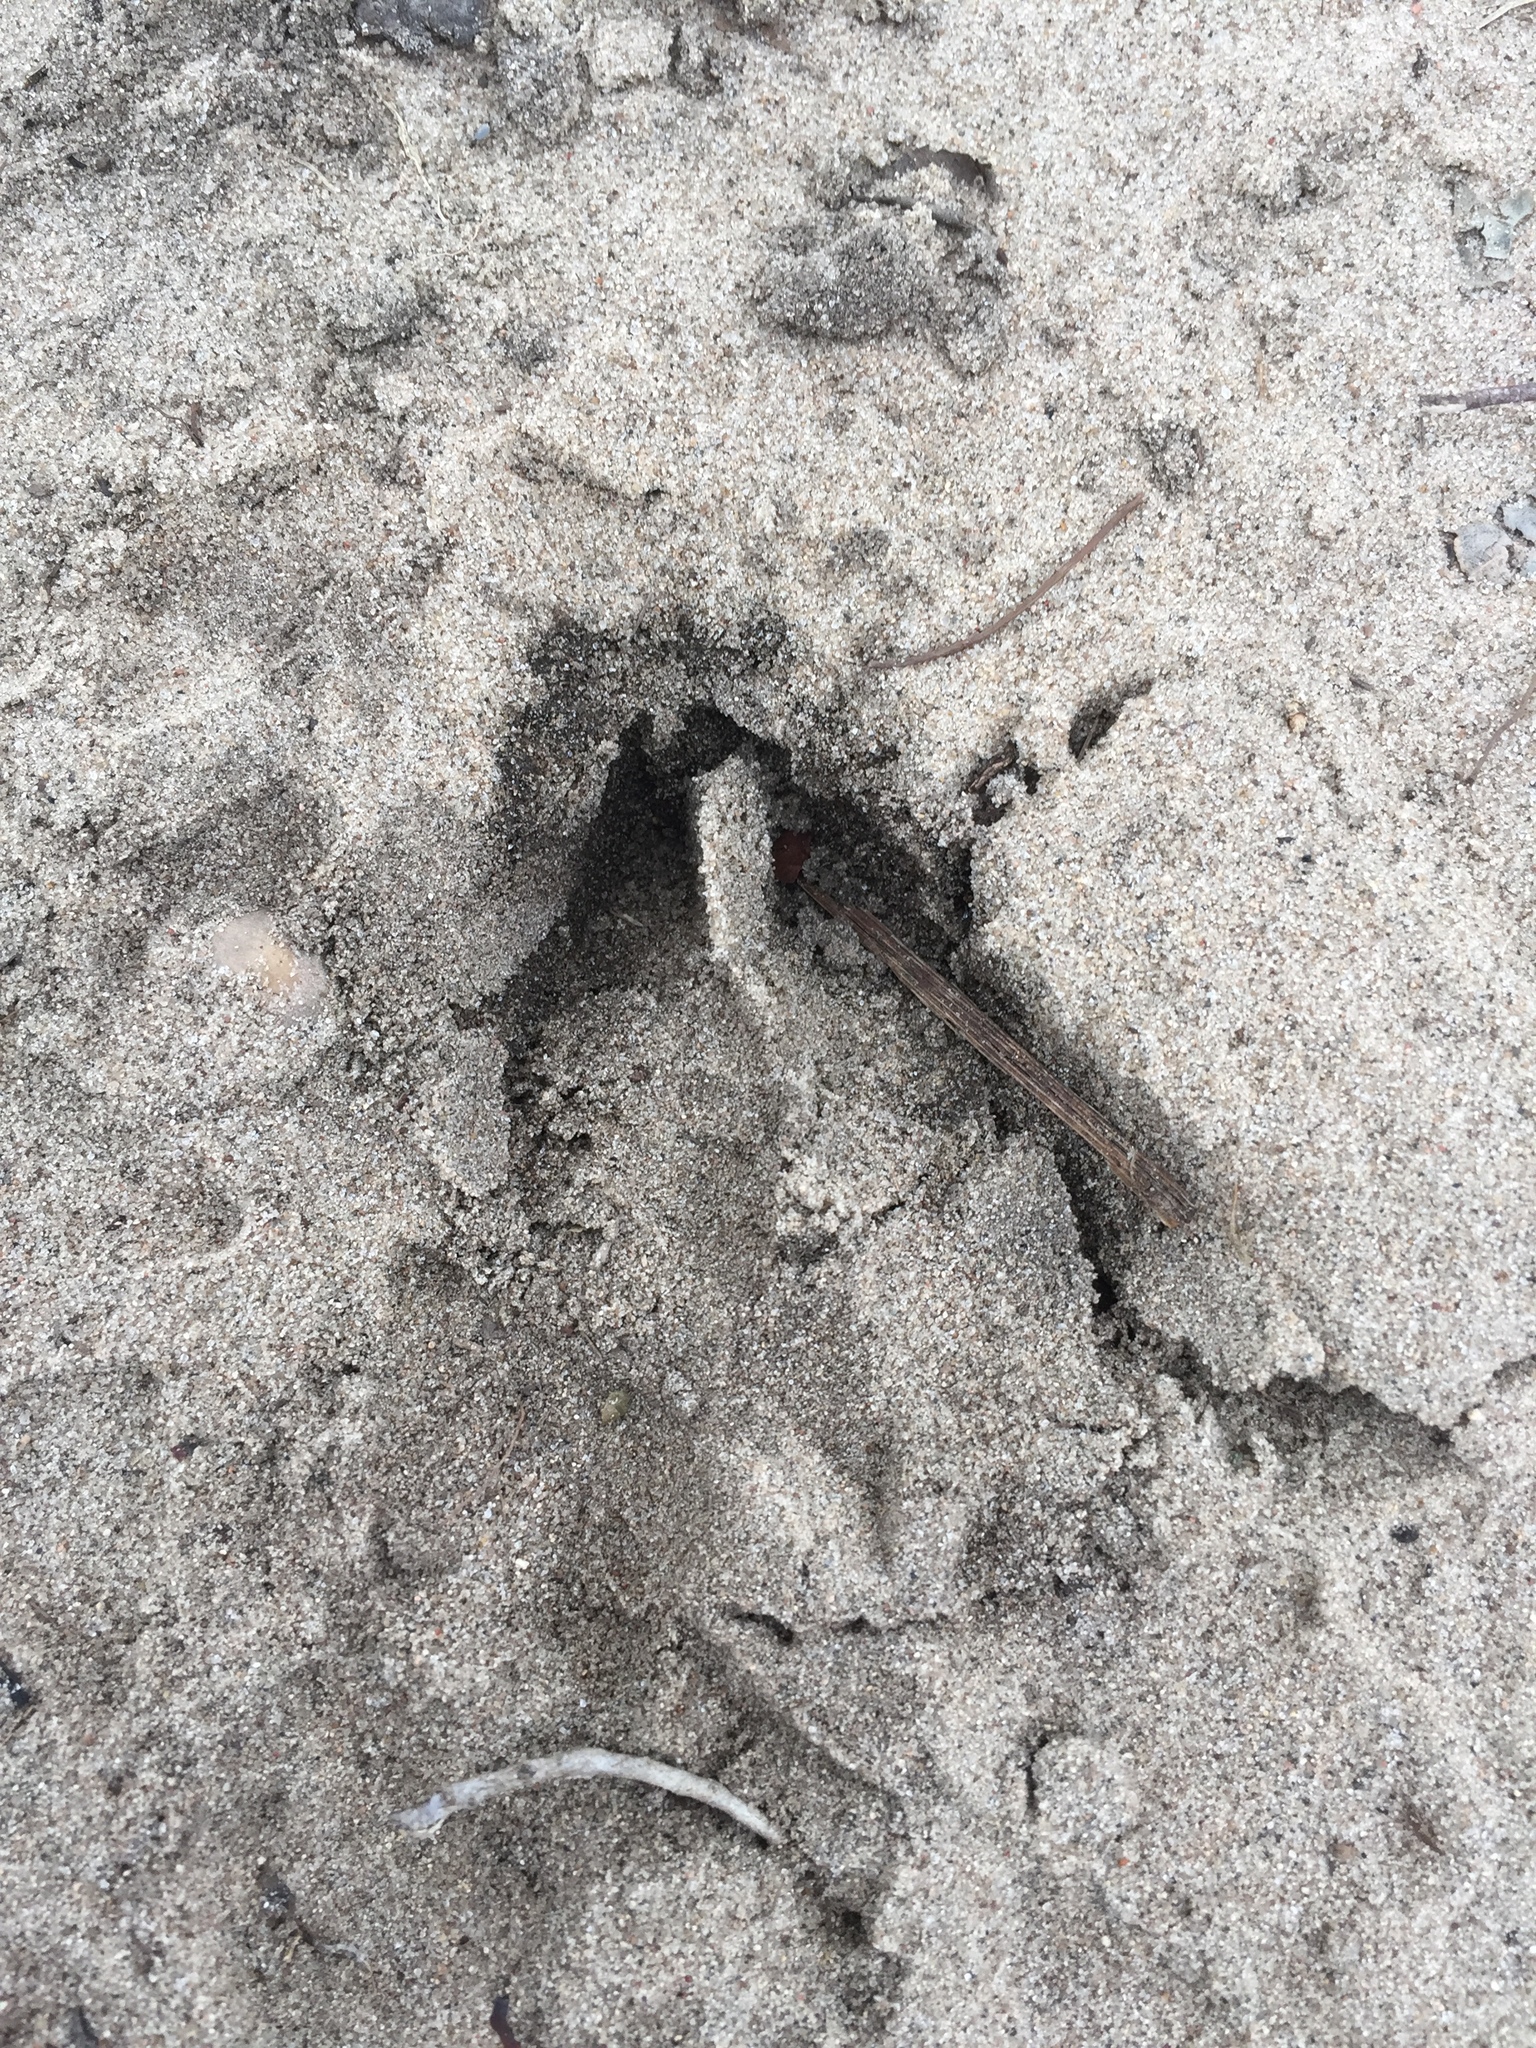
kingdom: Animalia
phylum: Chordata
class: Mammalia
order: Artiodactyla
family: Cervidae
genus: Odocoileus
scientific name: Odocoileus virginianus
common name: White-tailed deer
